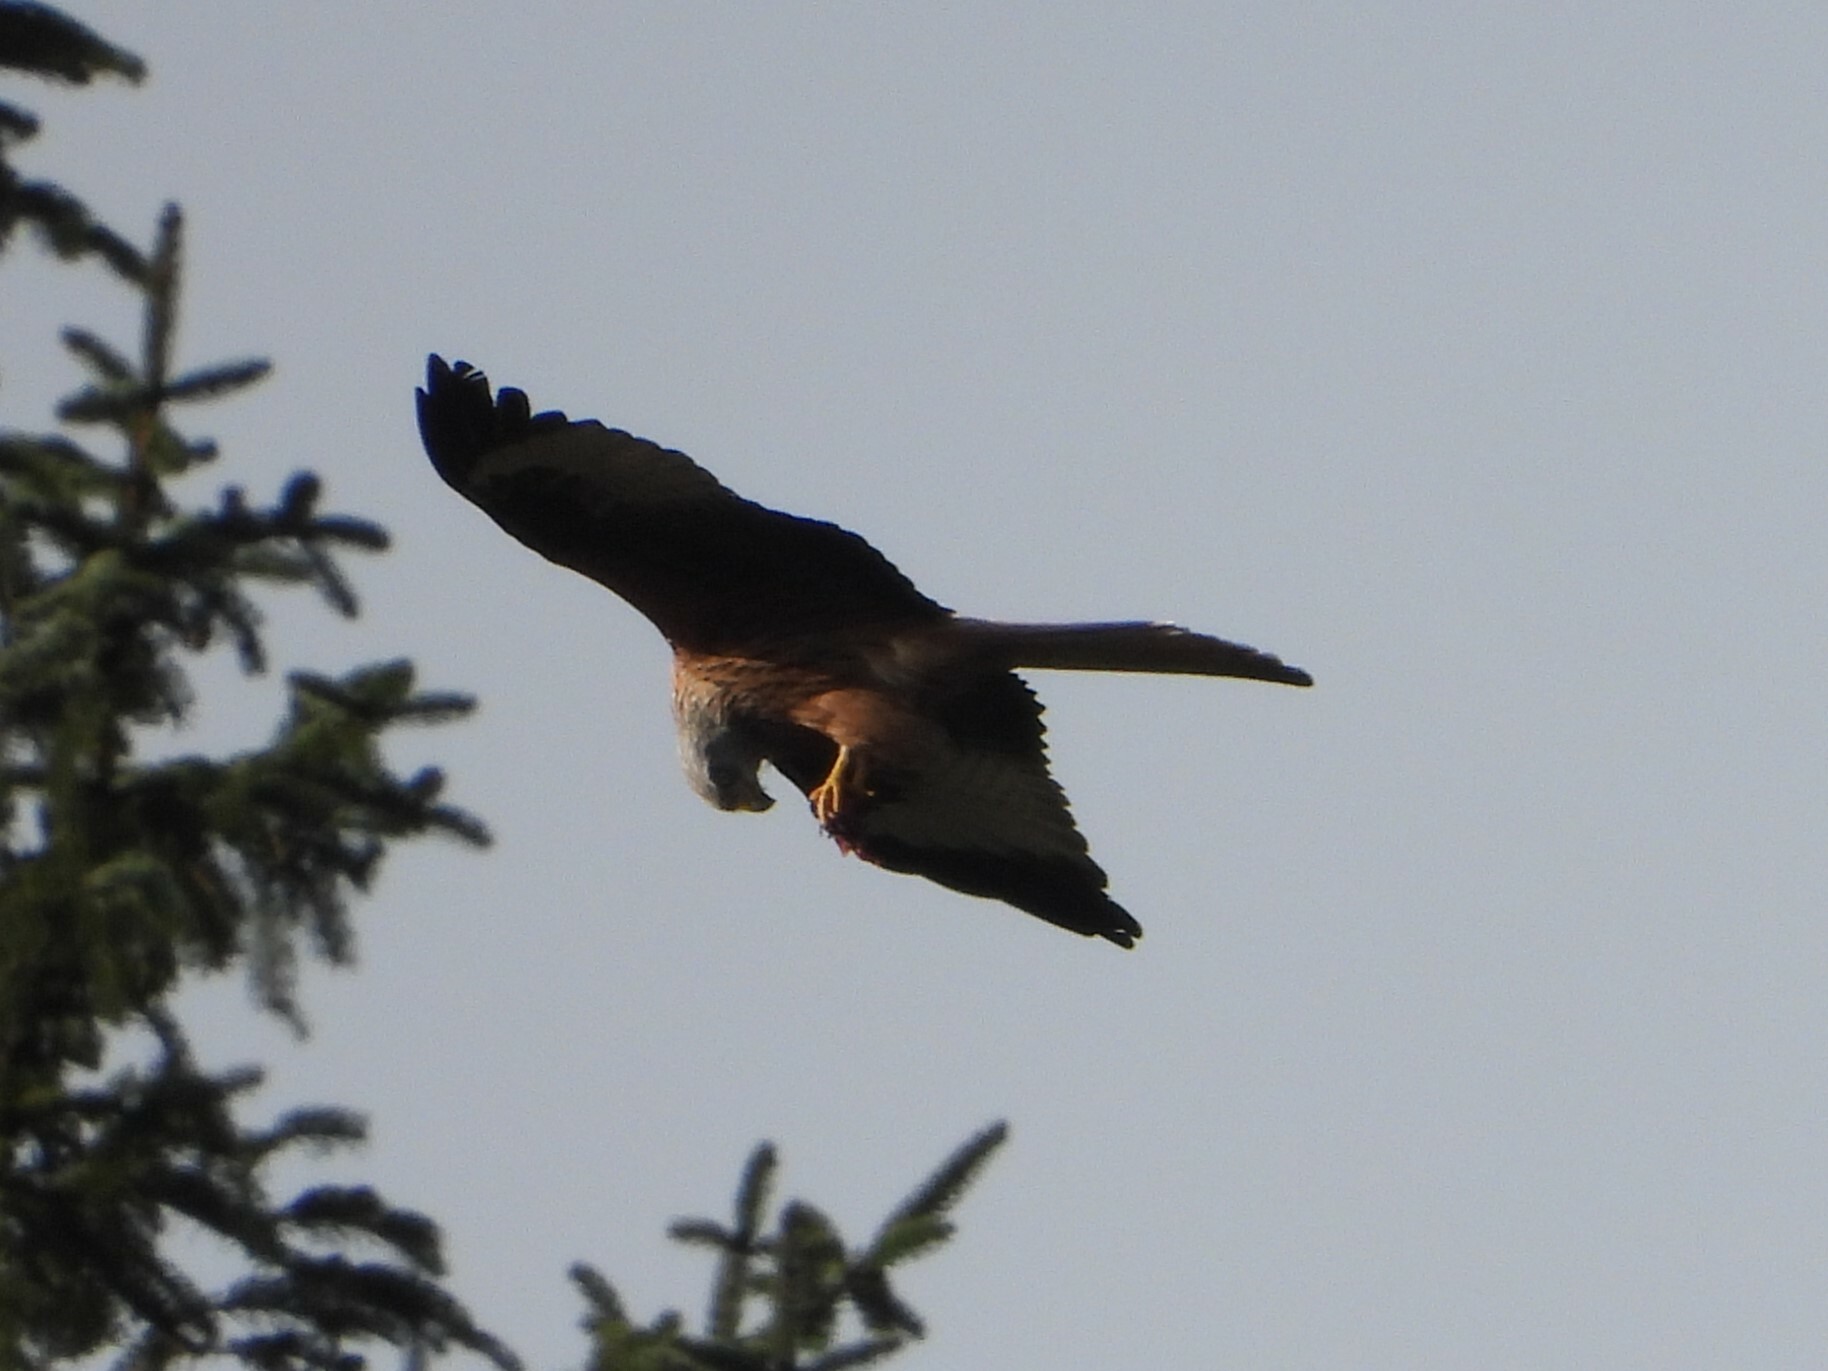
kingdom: Animalia
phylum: Chordata
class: Aves
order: Accipitriformes
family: Accipitridae
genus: Milvus
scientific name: Milvus milvus
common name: Red kite
